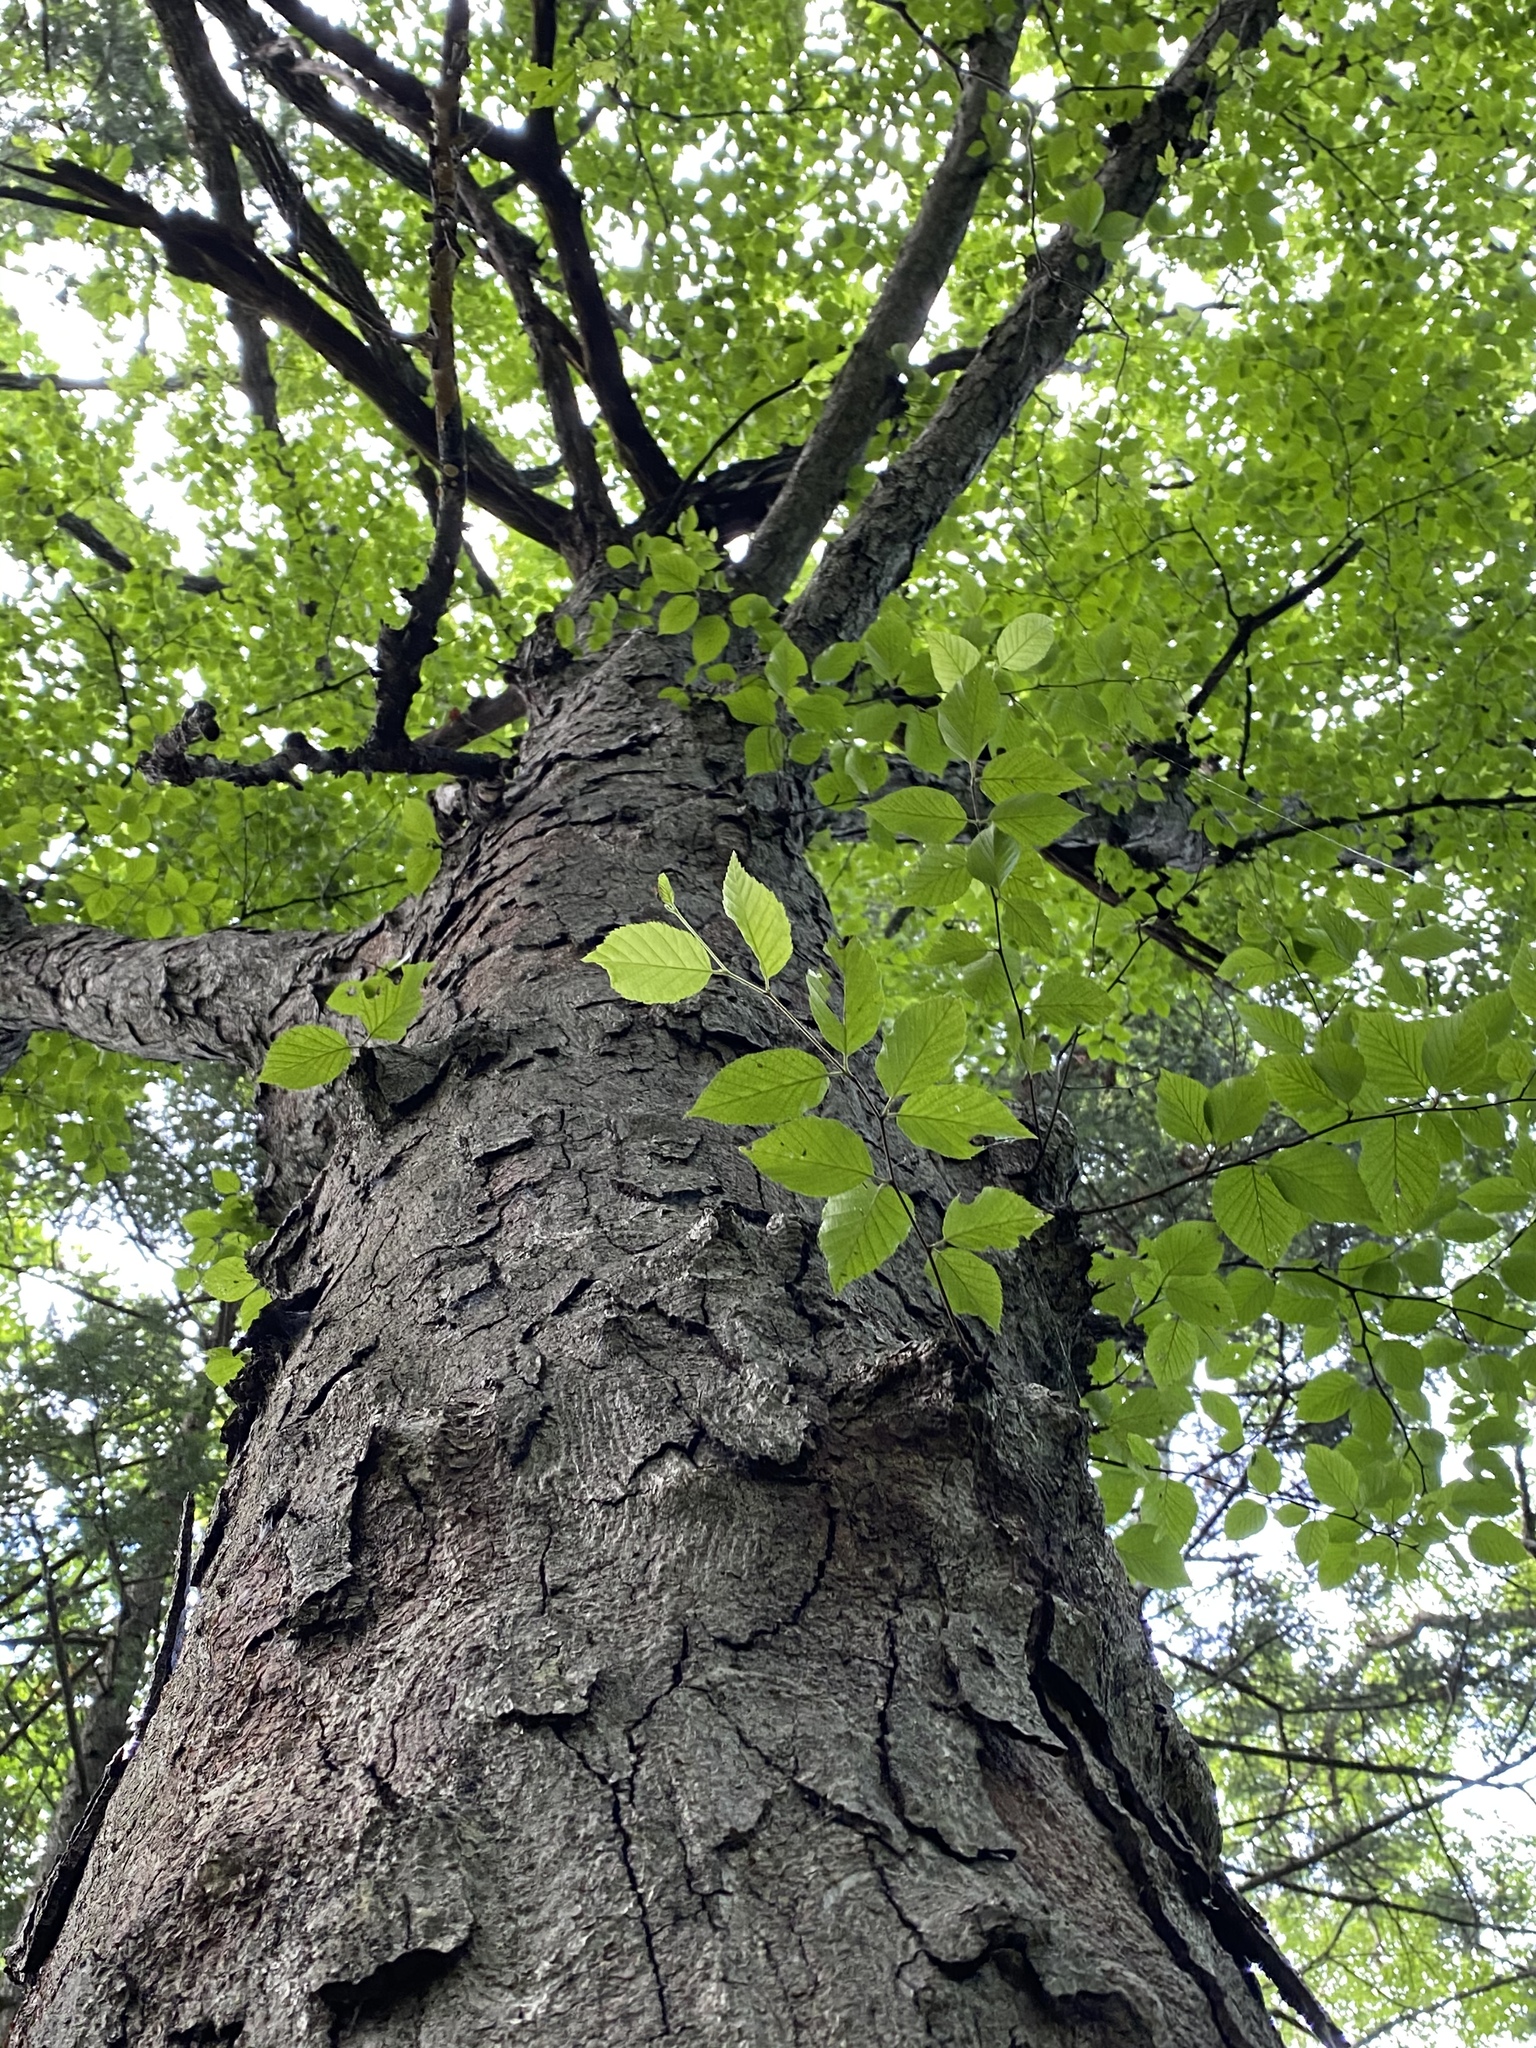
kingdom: Plantae
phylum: Tracheophyta
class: Magnoliopsida
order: Fagales
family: Betulaceae
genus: Betula
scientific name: Betula schmidtii
